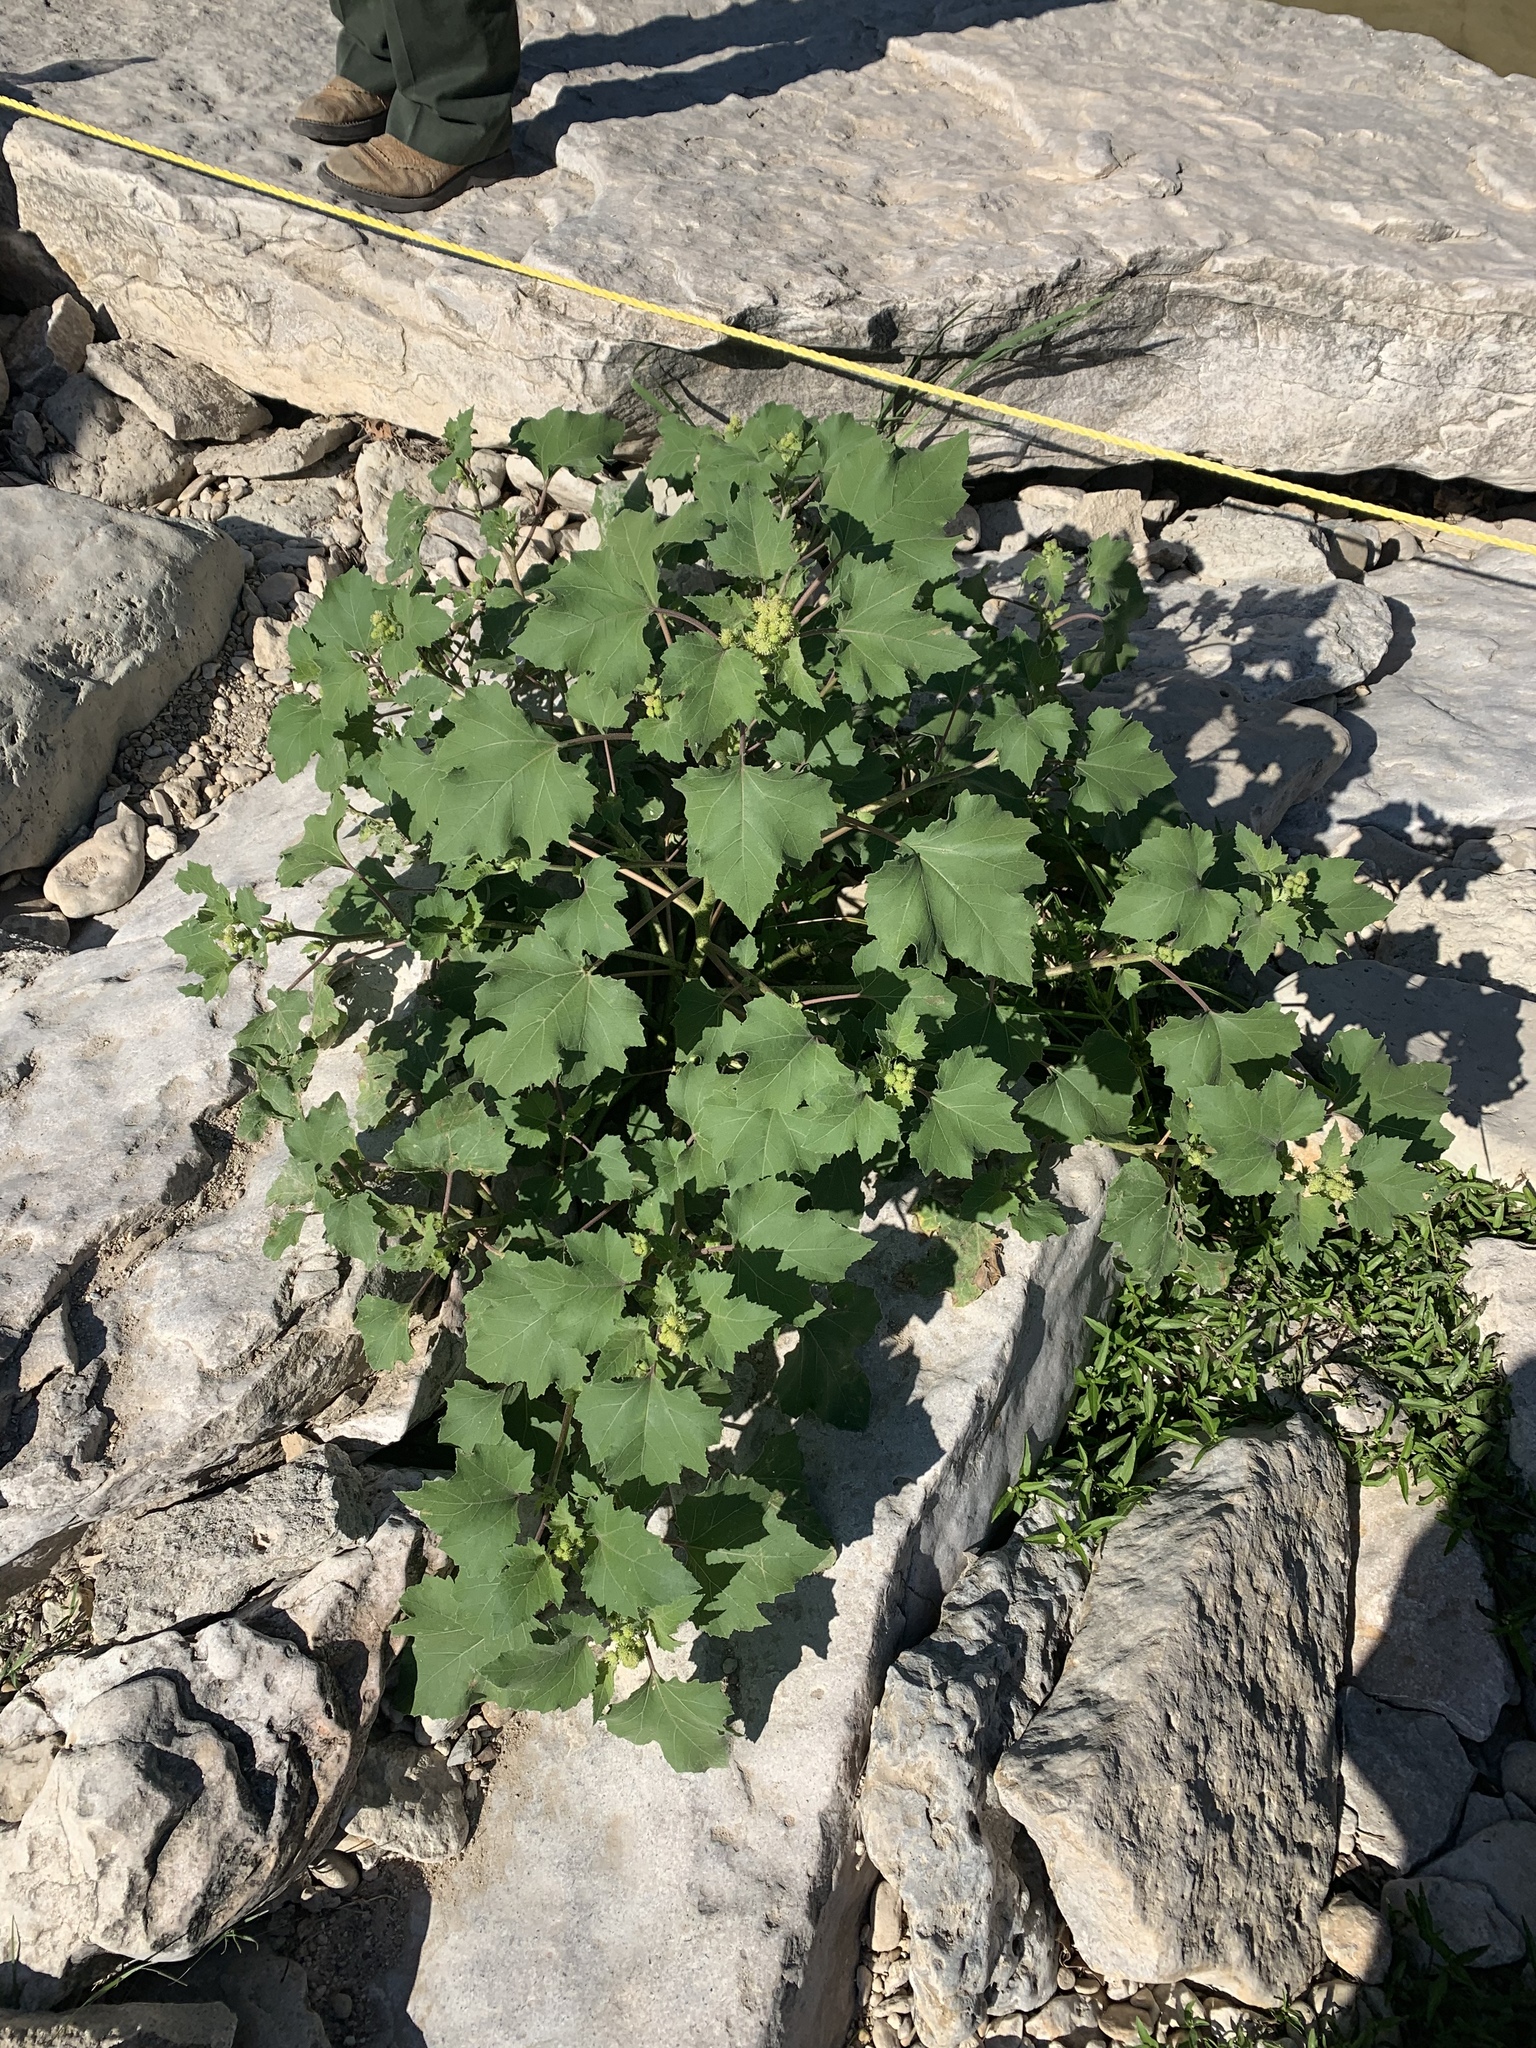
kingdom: Plantae
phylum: Tracheophyta
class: Magnoliopsida
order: Asterales
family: Asteraceae
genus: Xanthium
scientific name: Xanthium strumarium
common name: Rough cocklebur
